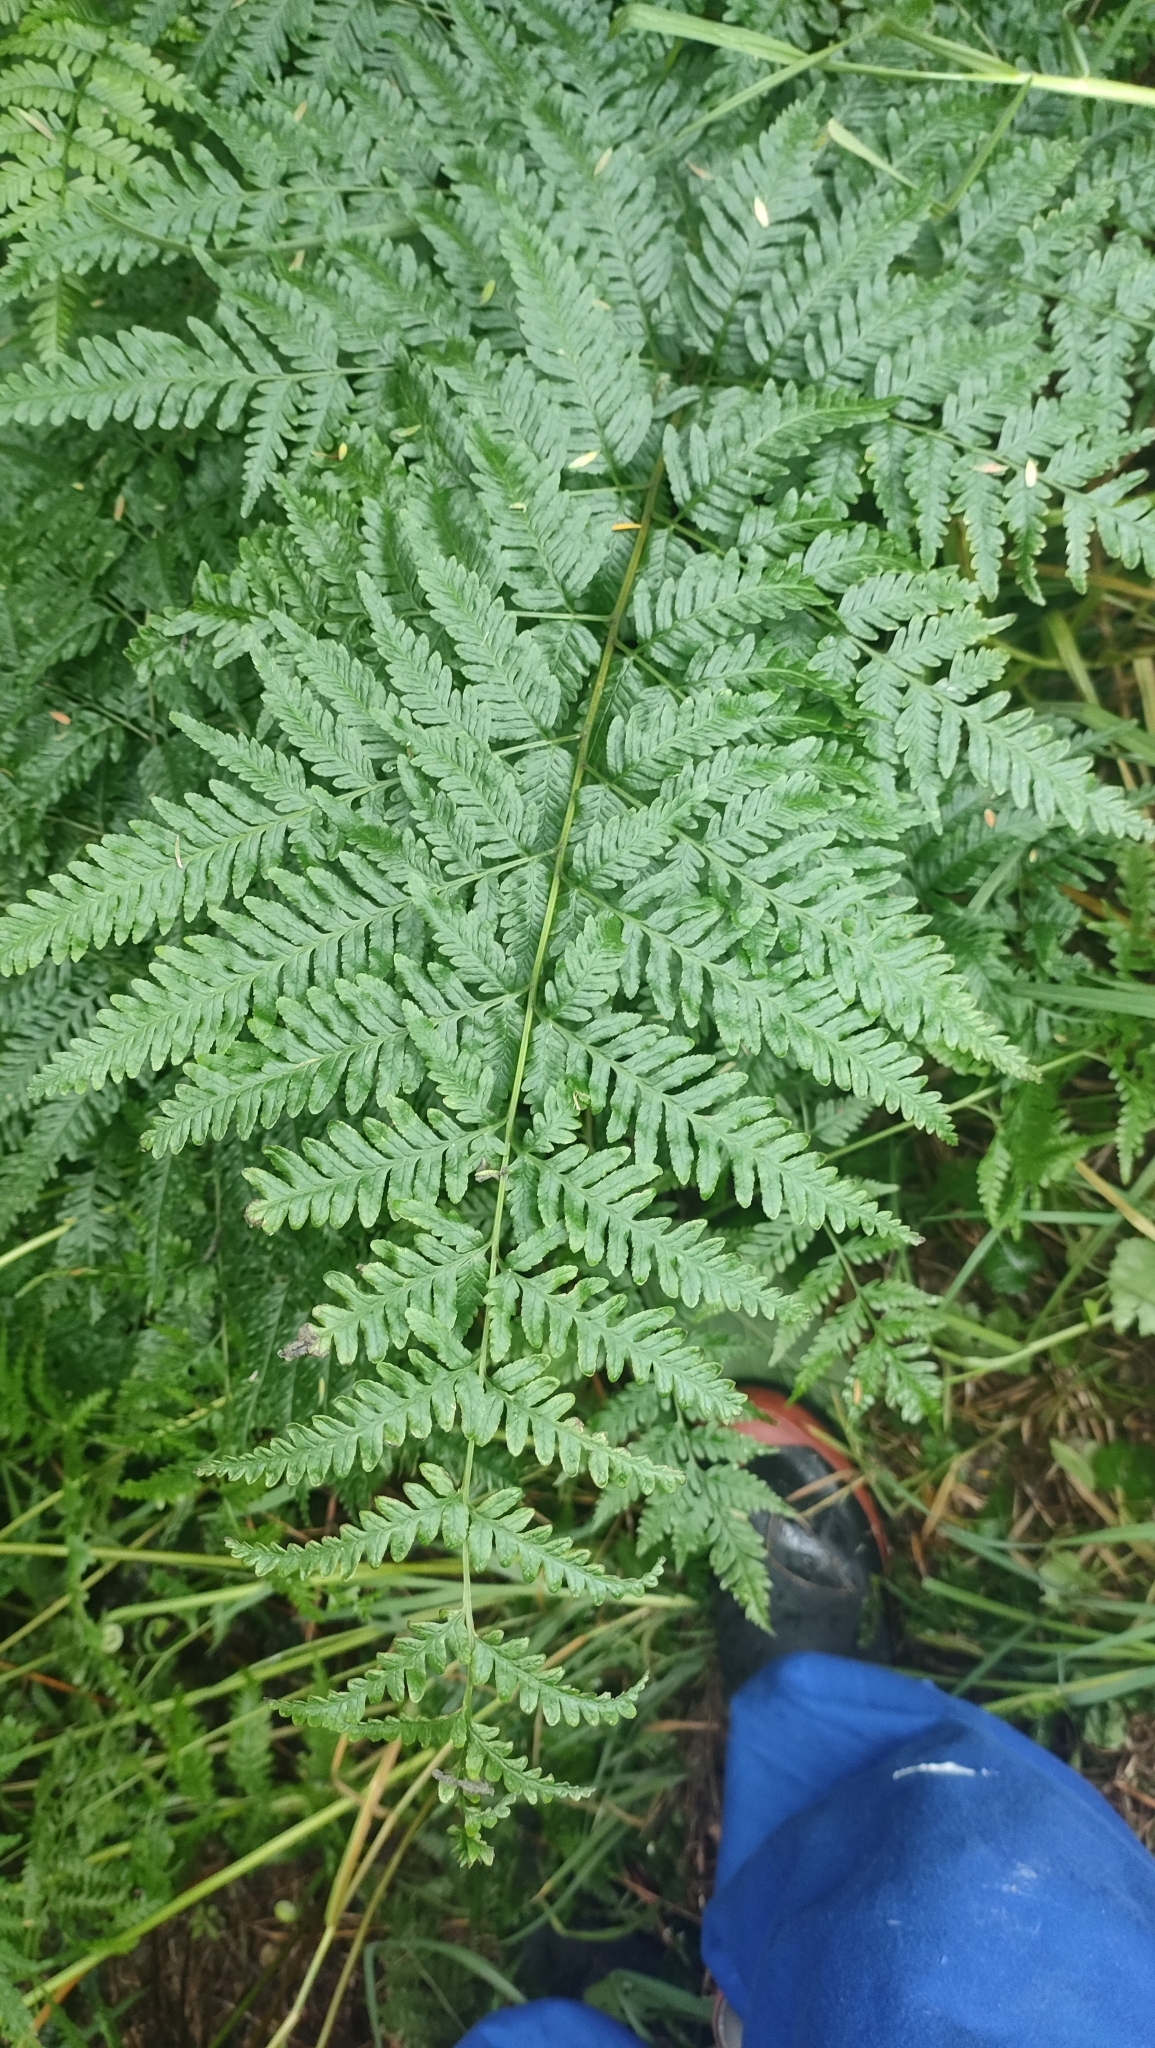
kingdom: Plantae
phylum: Tracheophyta
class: Polypodiopsida
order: Polypodiales
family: Pteridaceae
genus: Pteris
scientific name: Pteris tremula
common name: Australian brake
